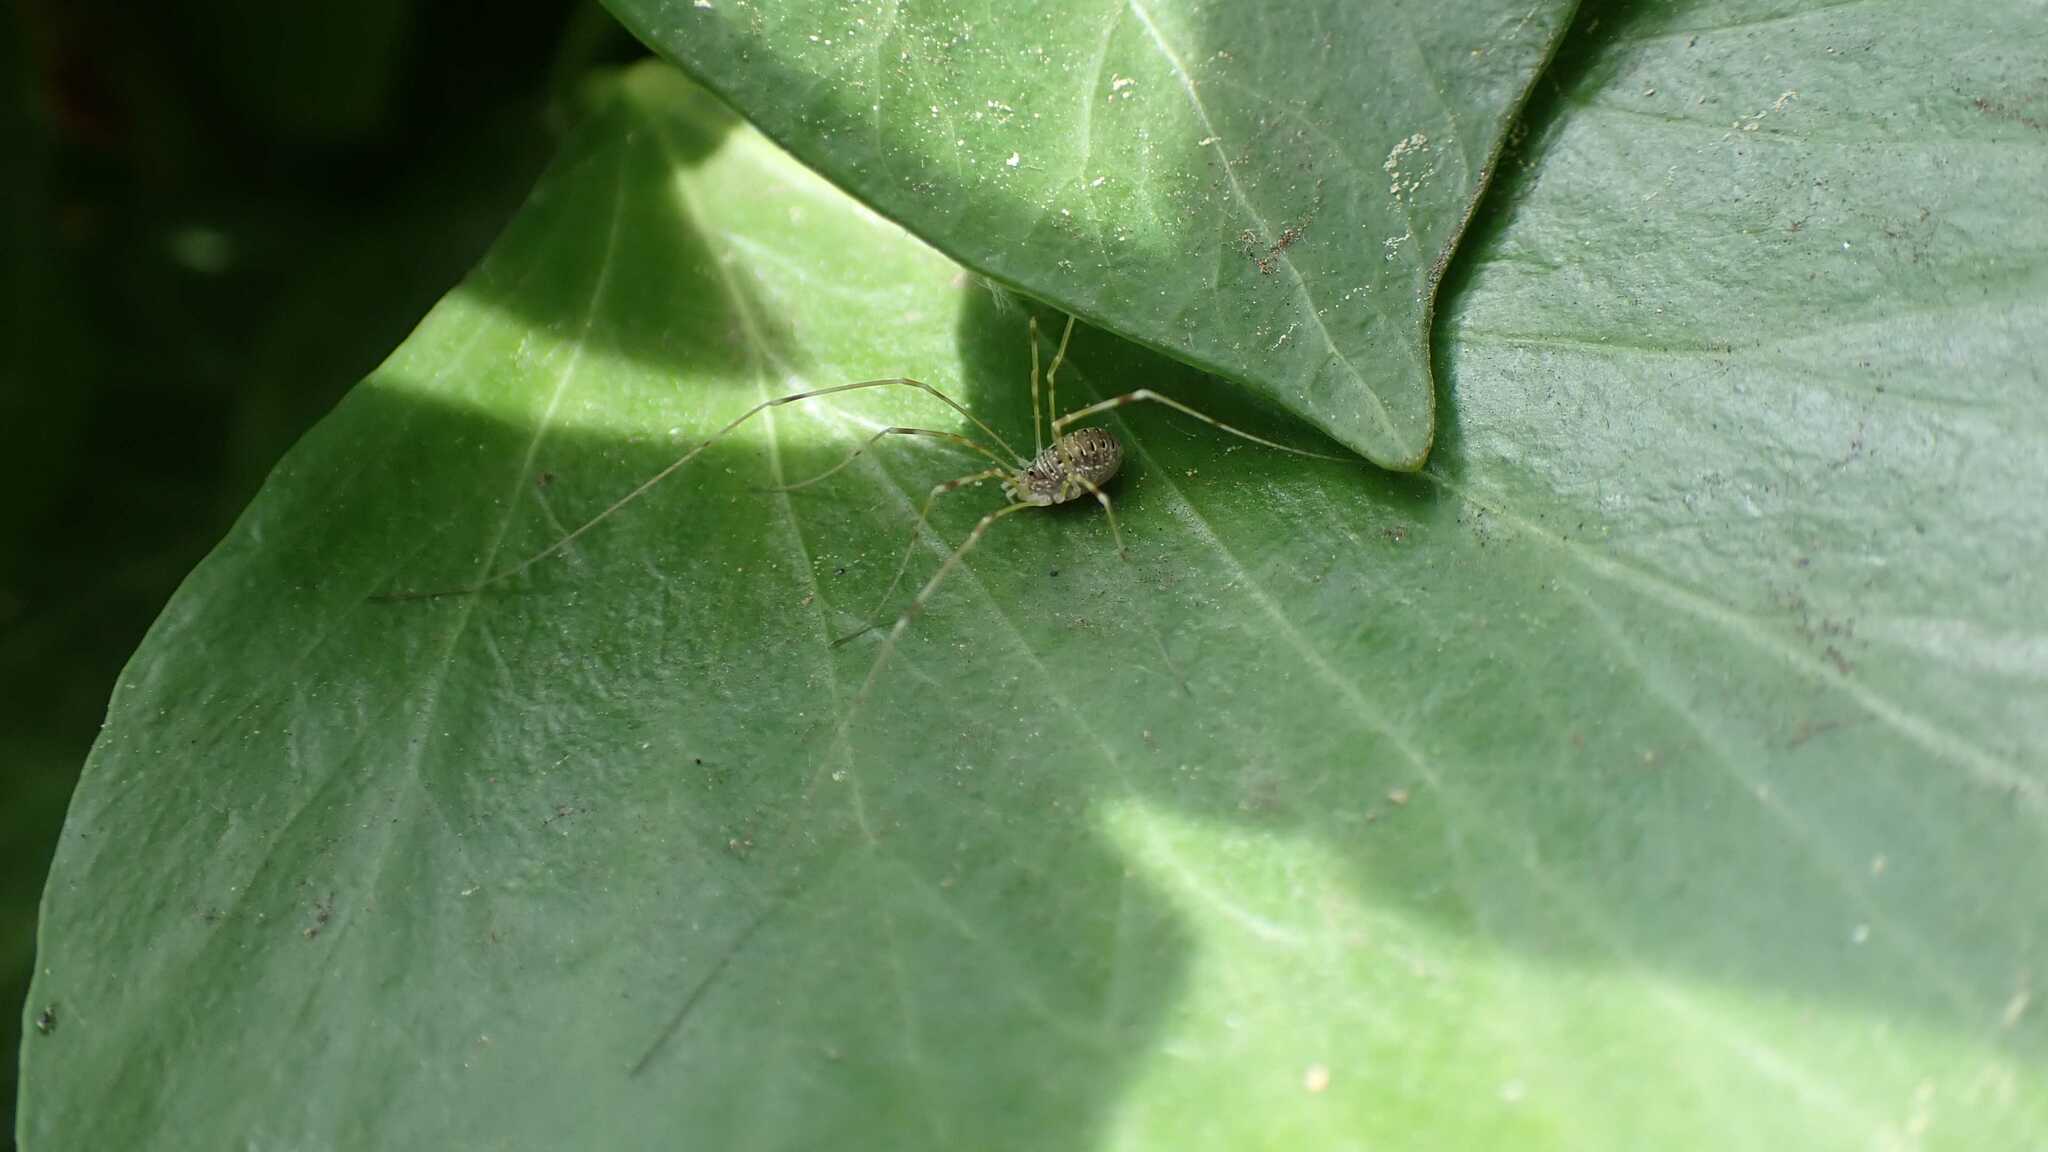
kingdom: Animalia
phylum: Arthropoda
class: Arachnida
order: Opiliones
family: Phalangiidae
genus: Opilio
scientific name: Opilio canestrinii
